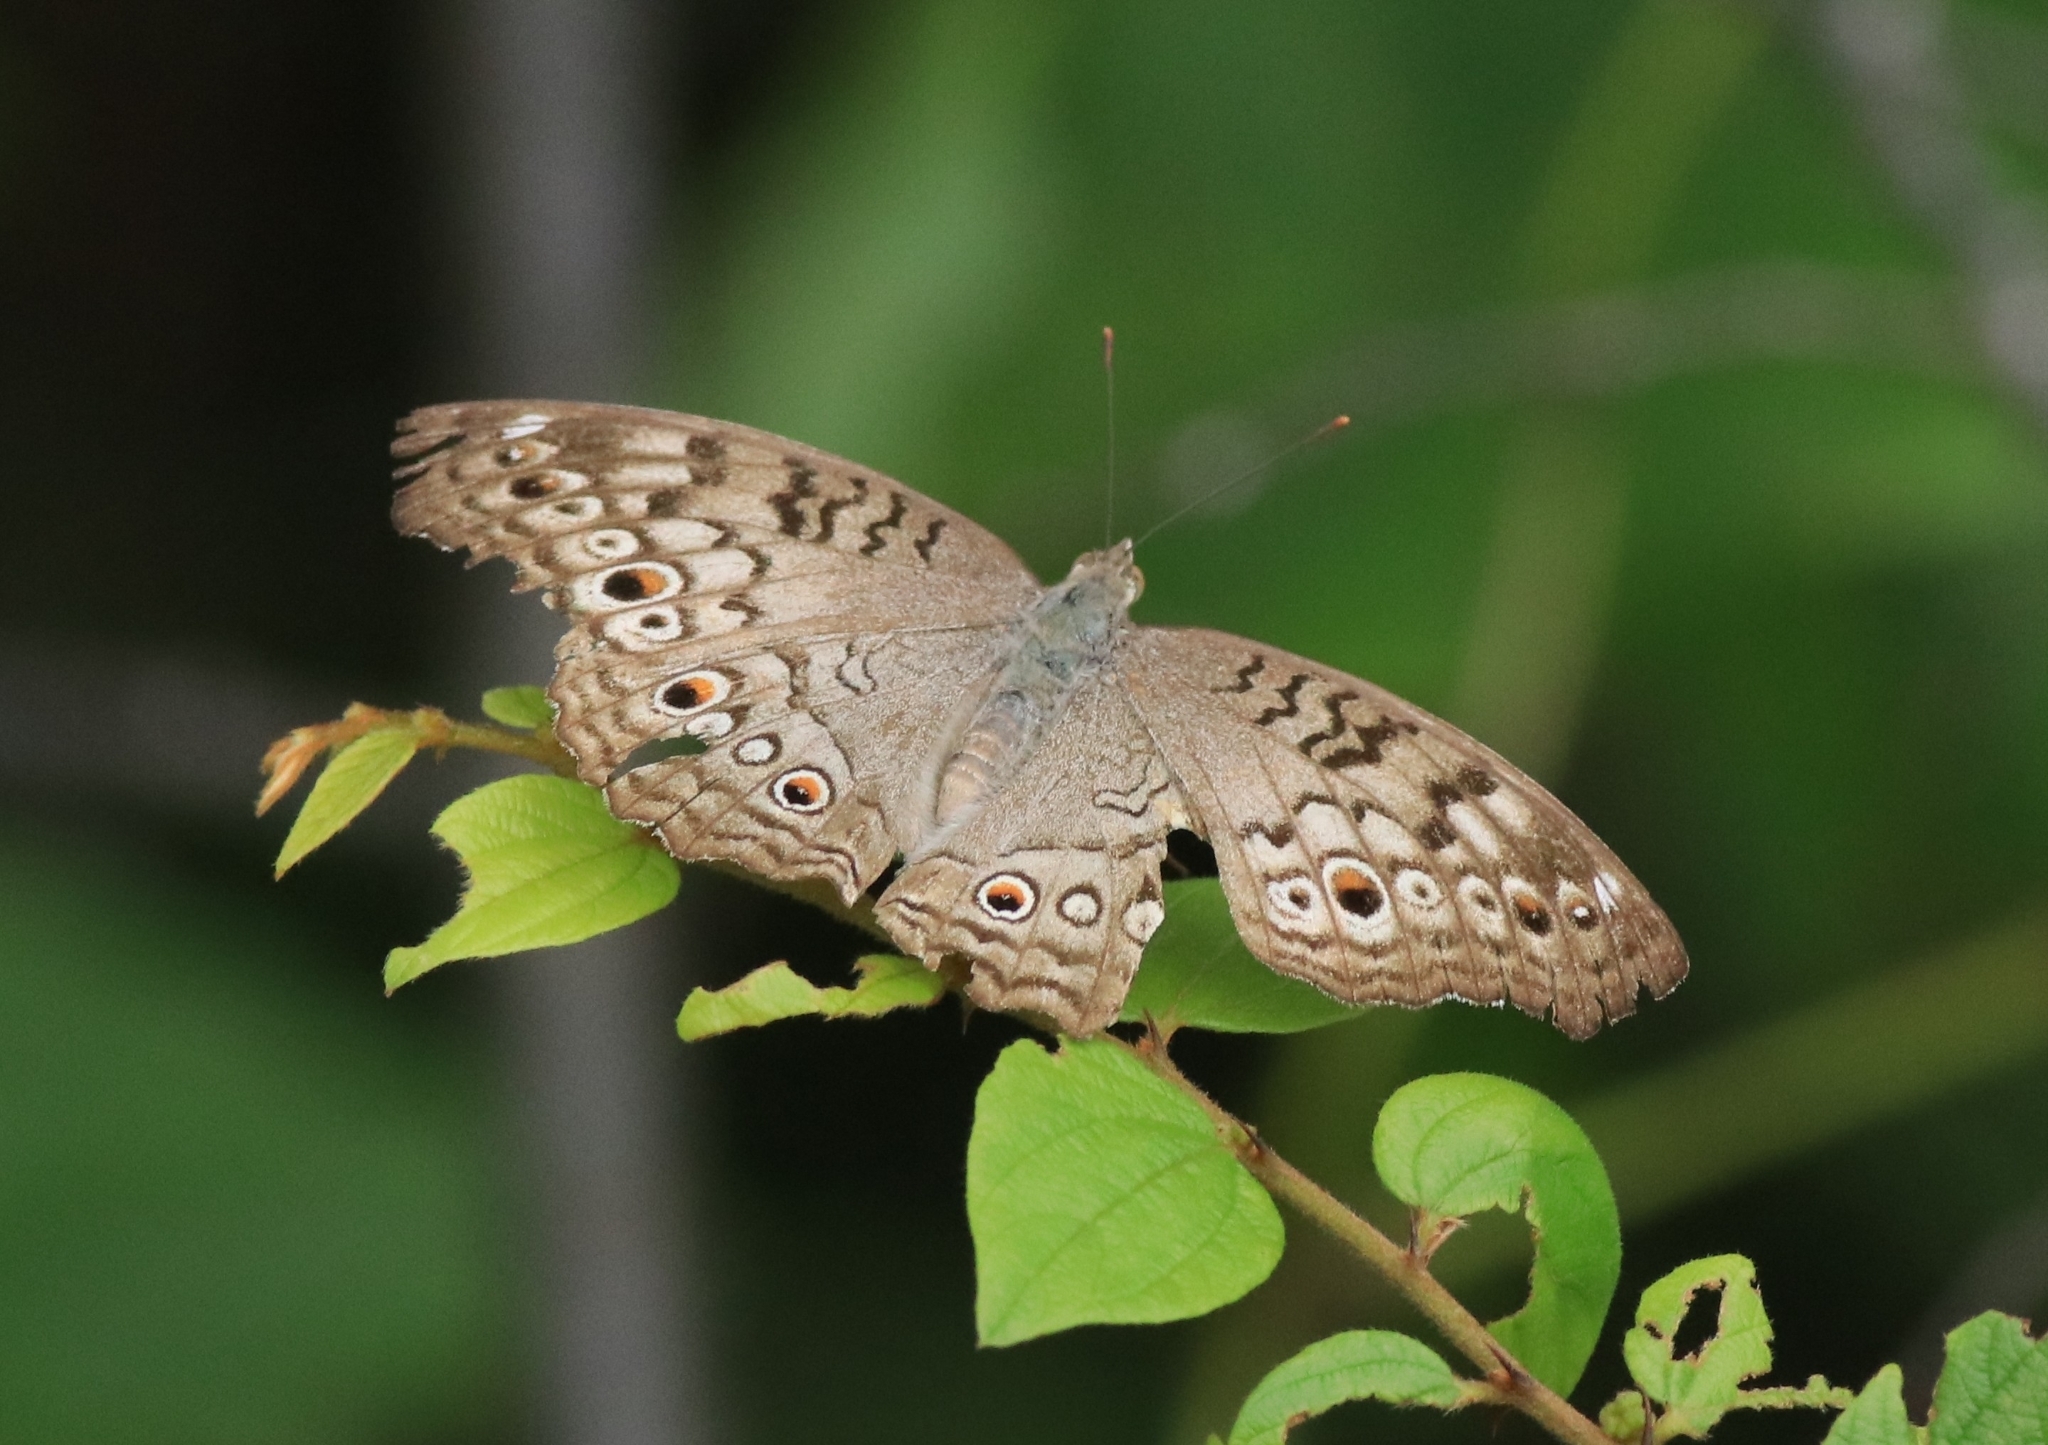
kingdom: Animalia
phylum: Arthropoda
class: Insecta
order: Lepidoptera
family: Nymphalidae
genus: Junonia
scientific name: Junonia atlites
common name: Grey pansy
